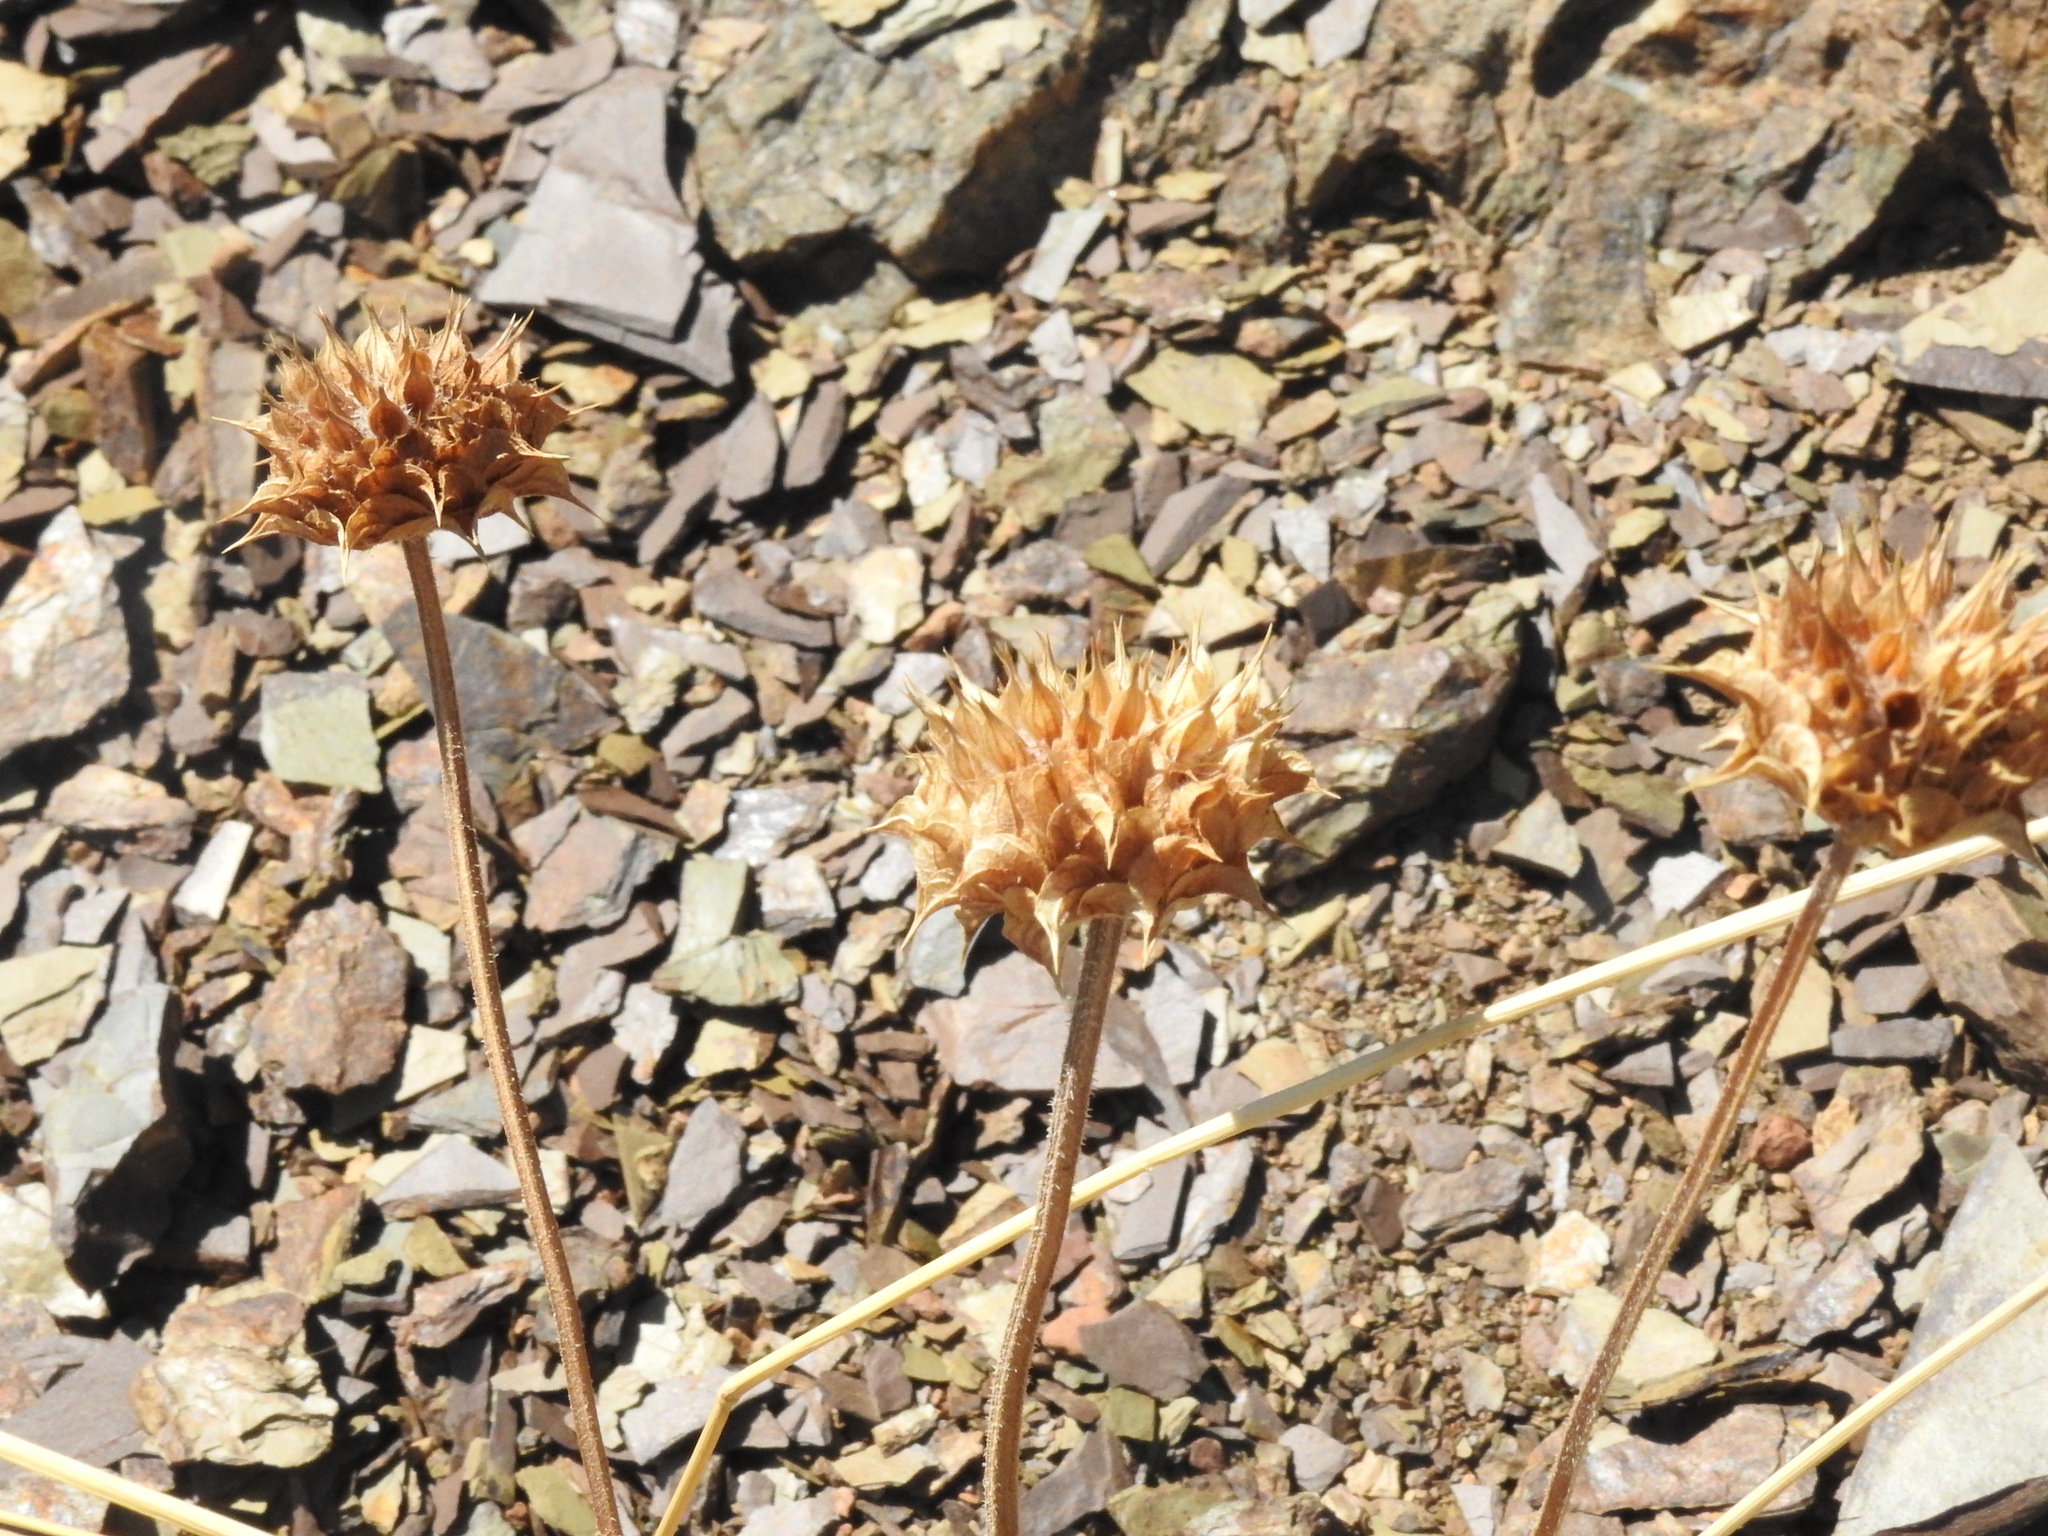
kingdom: Plantae
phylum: Tracheophyta
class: Magnoliopsida
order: Lamiales
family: Lamiaceae
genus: Salvia
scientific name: Salvia columbariae
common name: Chia
